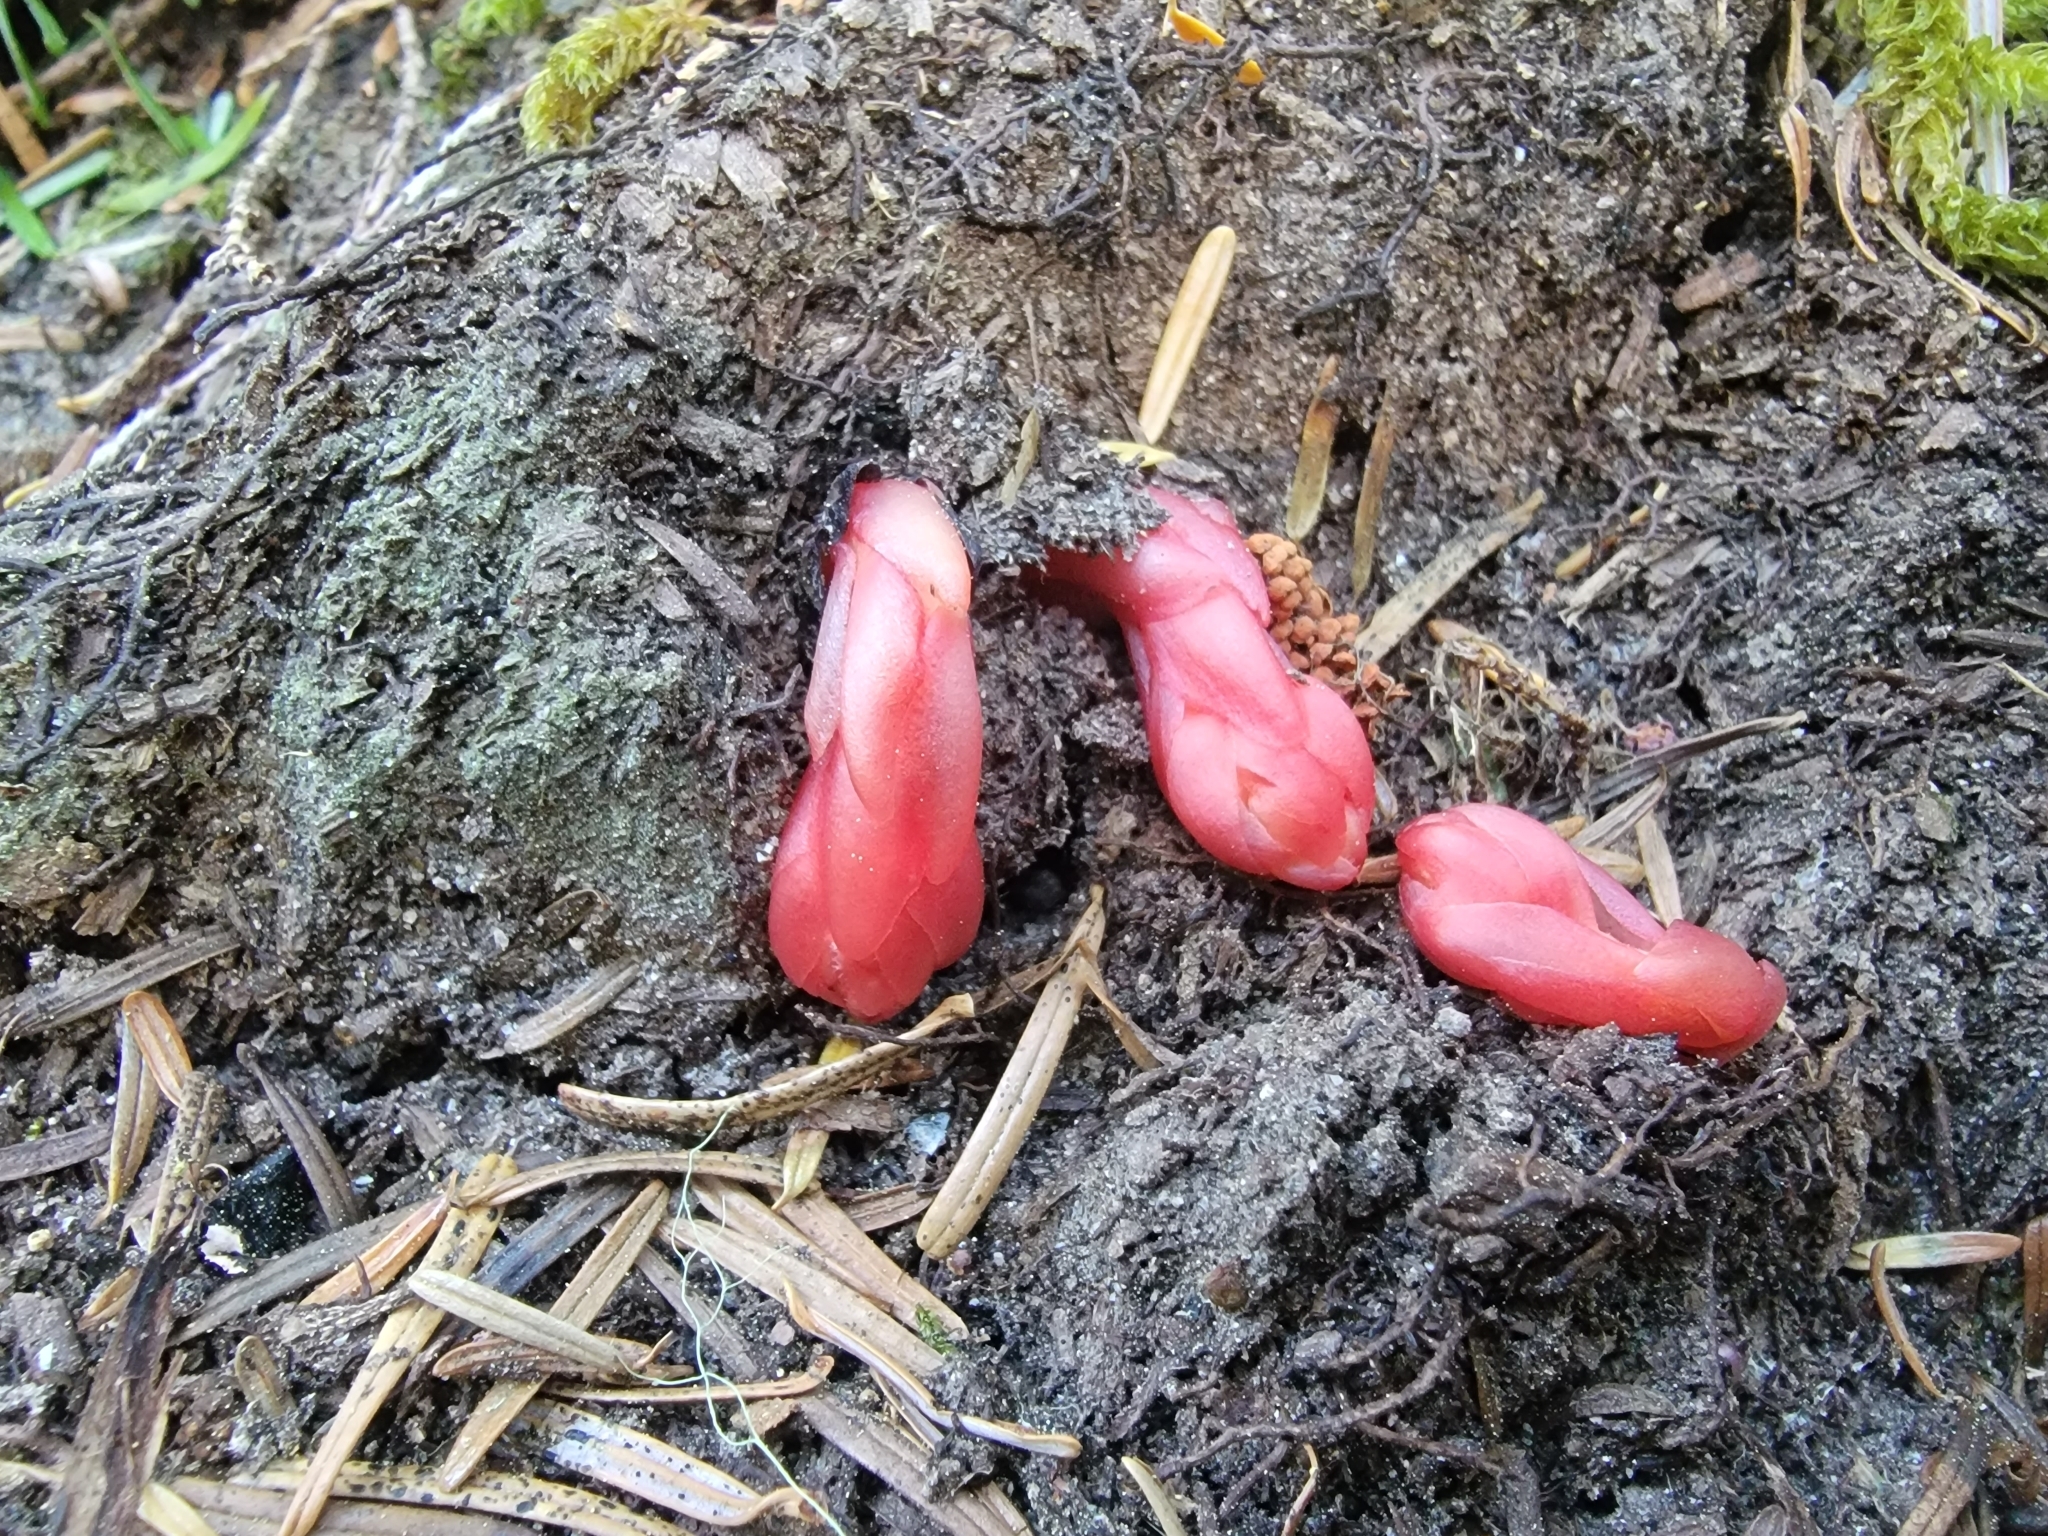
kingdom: Plantae
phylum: Tracheophyta
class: Magnoliopsida
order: Ericales
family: Ericaceae
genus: Hypopitys
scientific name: Hypopitys monotropa
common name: Yellow bird's-nest
